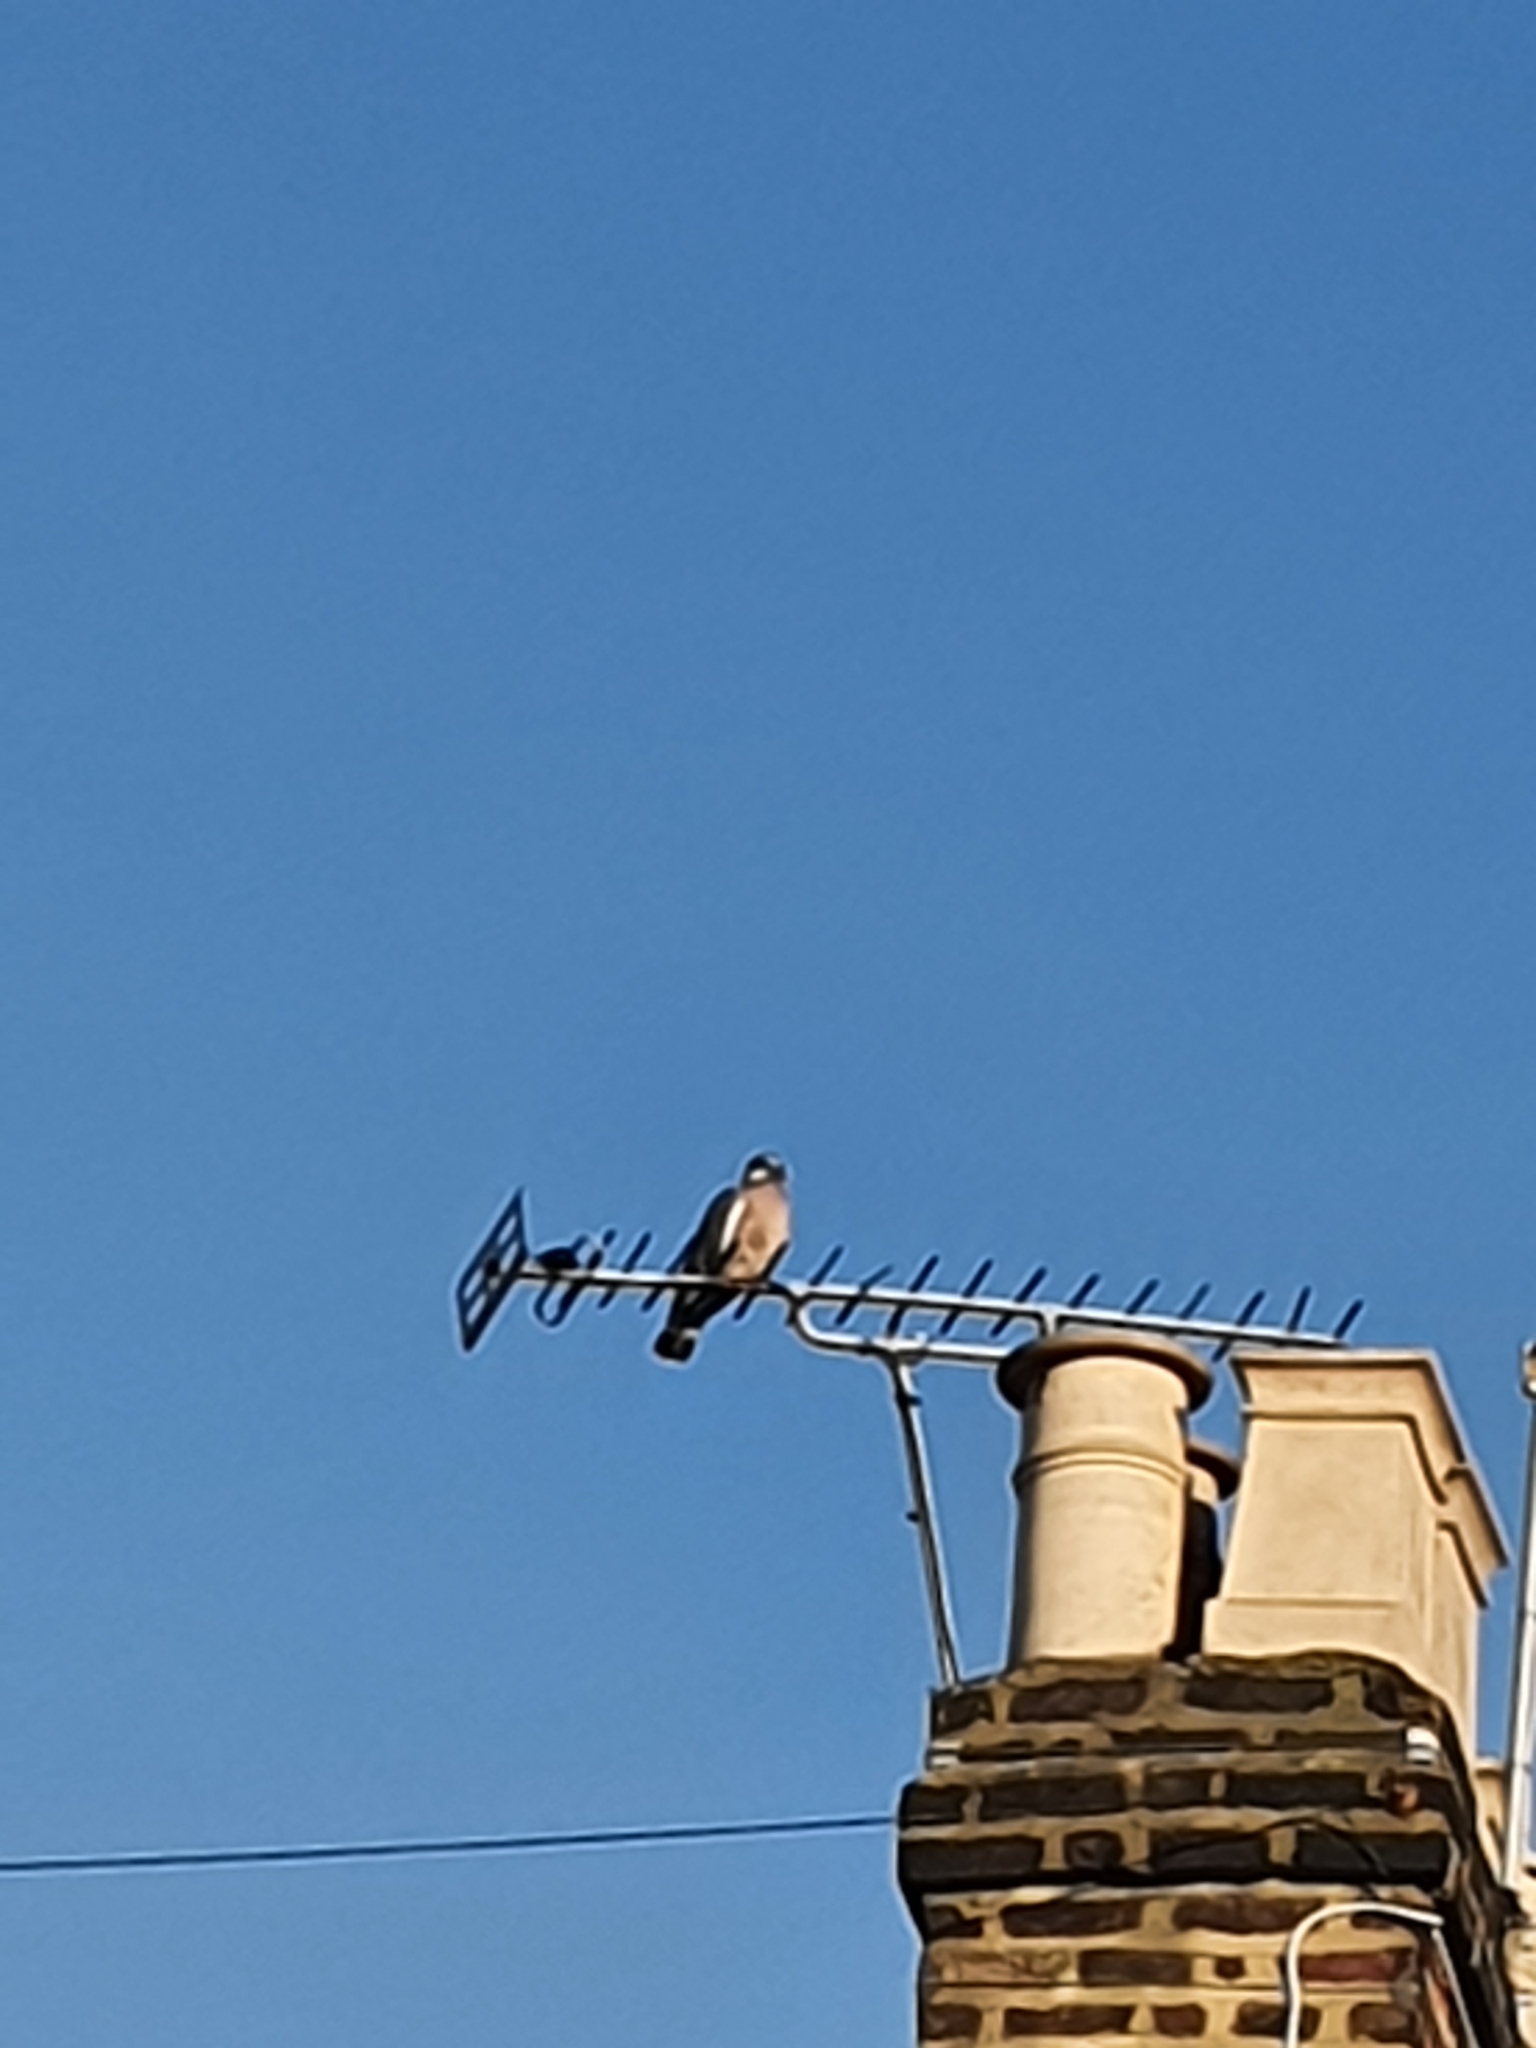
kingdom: Animalia
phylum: Chordata
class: Aves
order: Columbiformes
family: Columbidae
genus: Columba
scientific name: Columba palumbus
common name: Common wood pigeon
